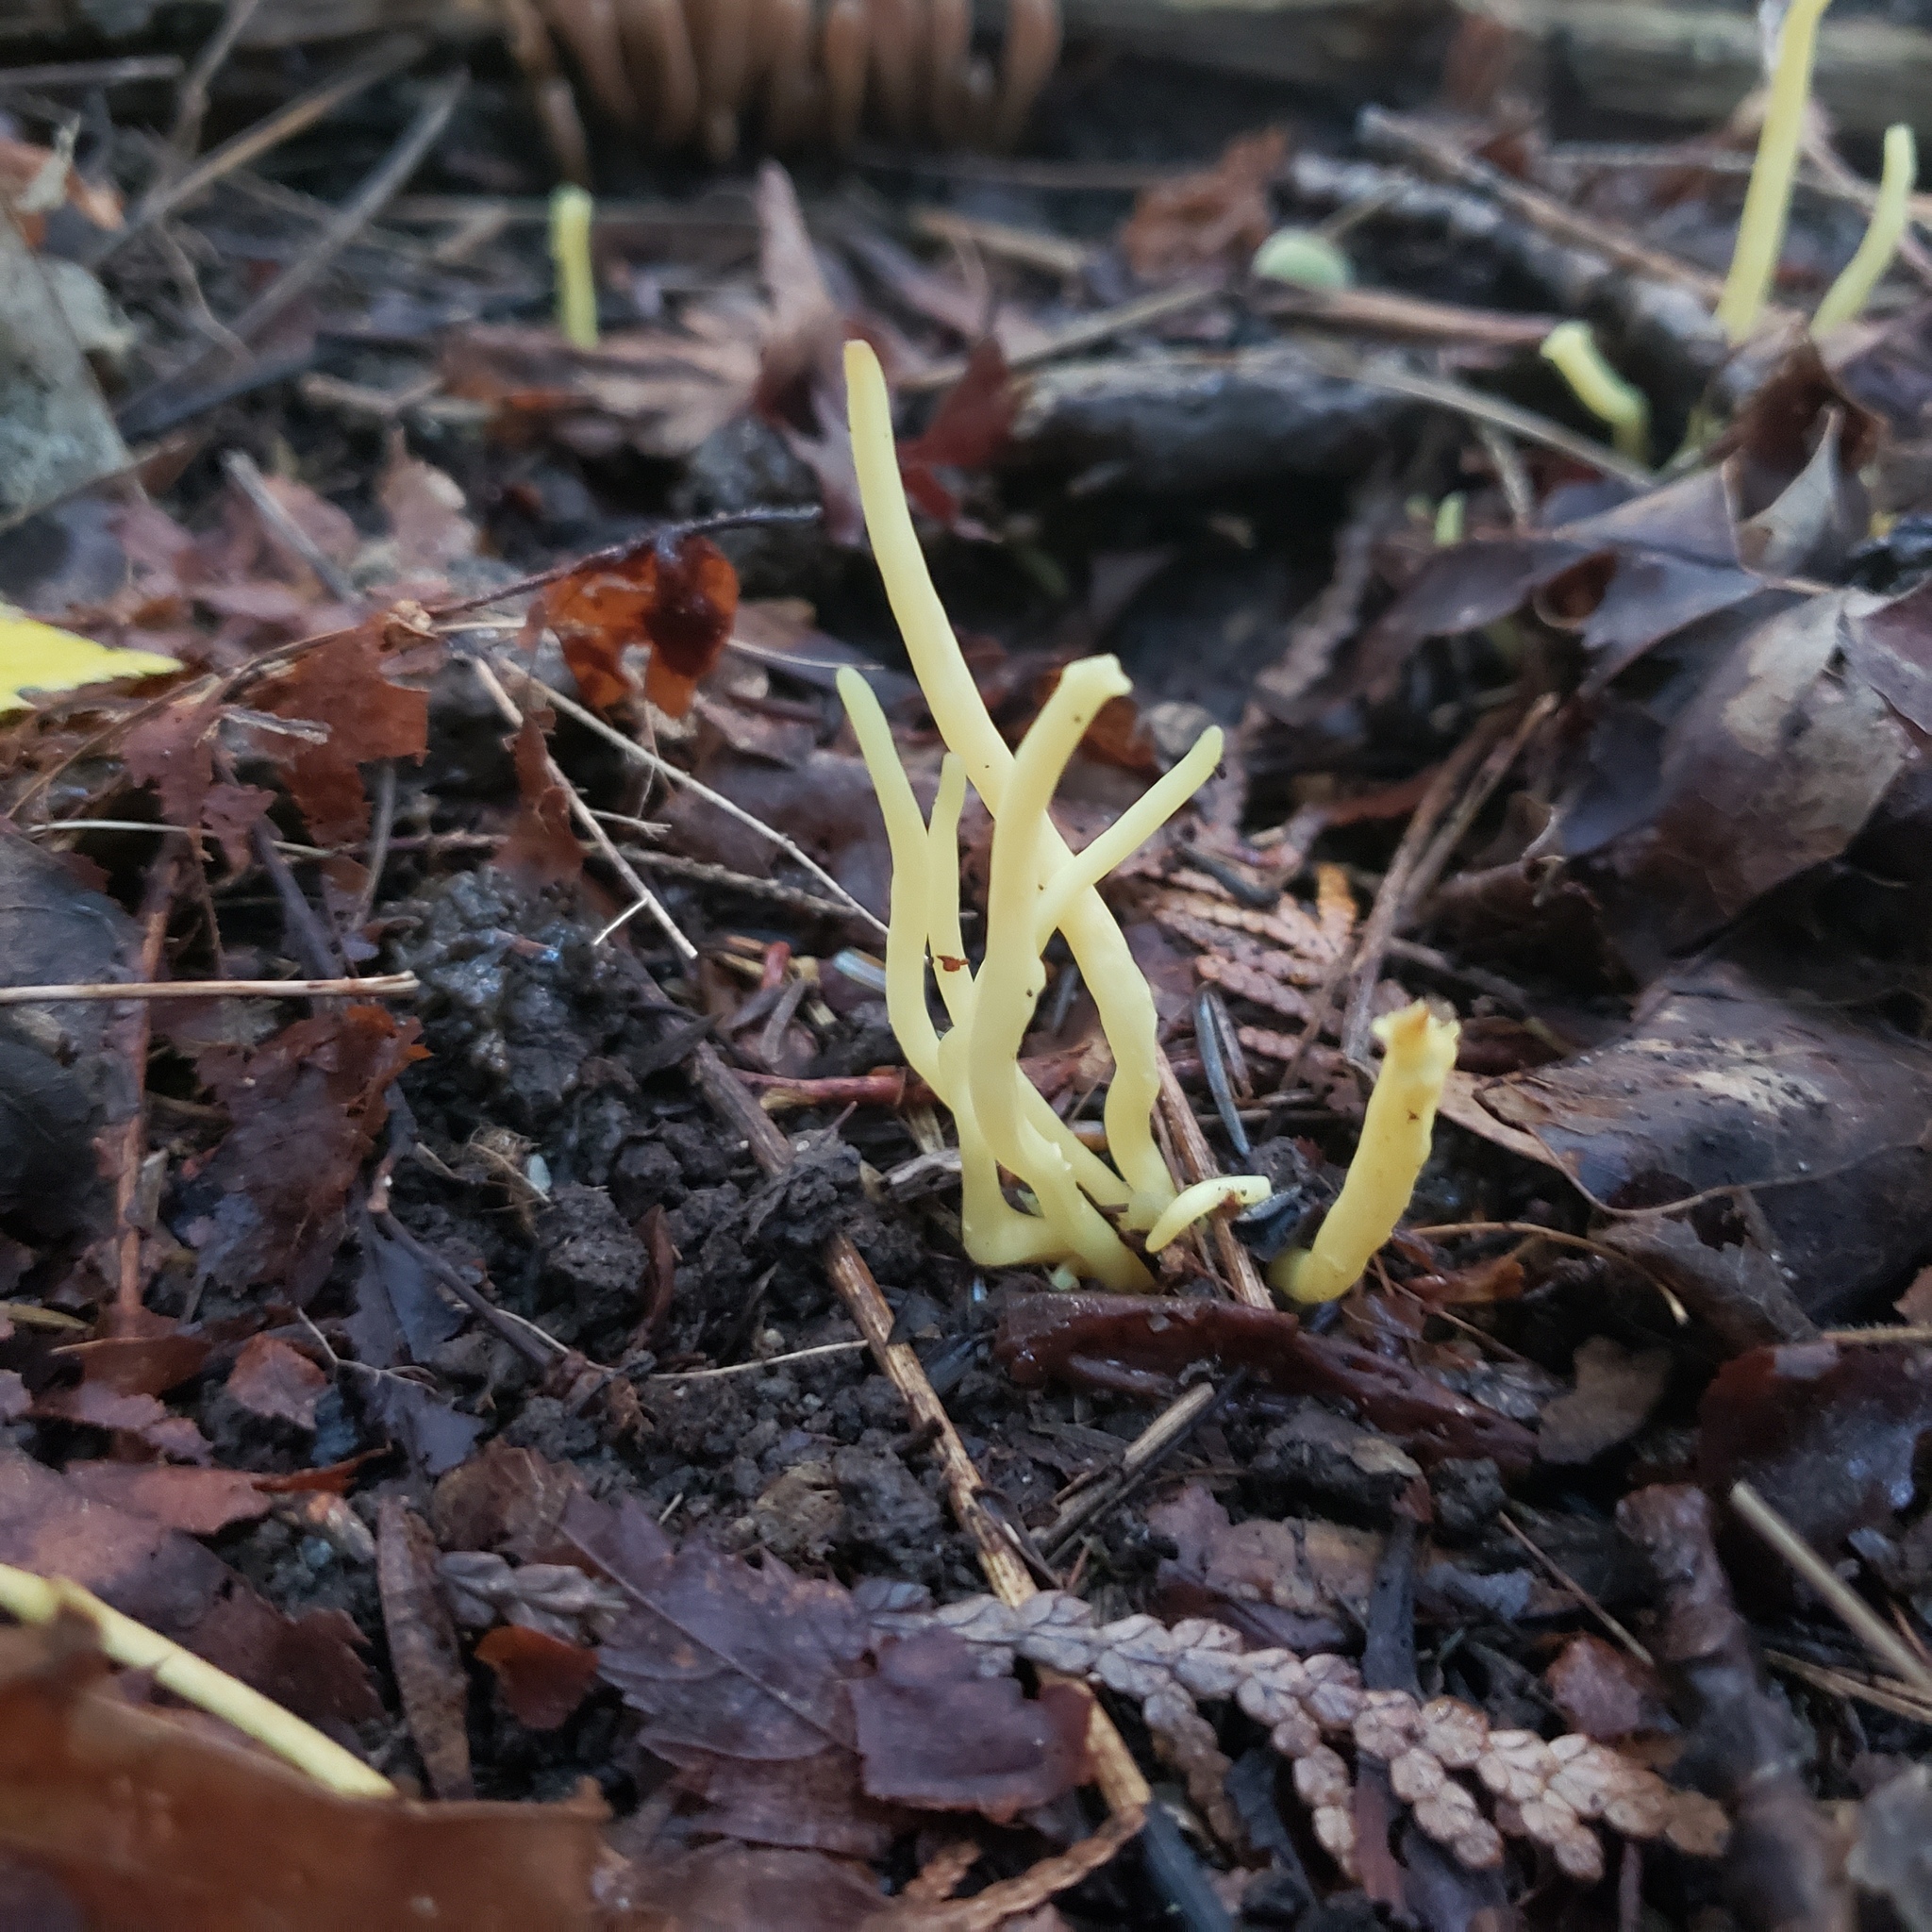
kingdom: Fungi
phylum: Basidiomycota
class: Agaricomycetes
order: Agaricales
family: Clavariaceae
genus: Clavaria
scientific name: Clavaria amoenoides
